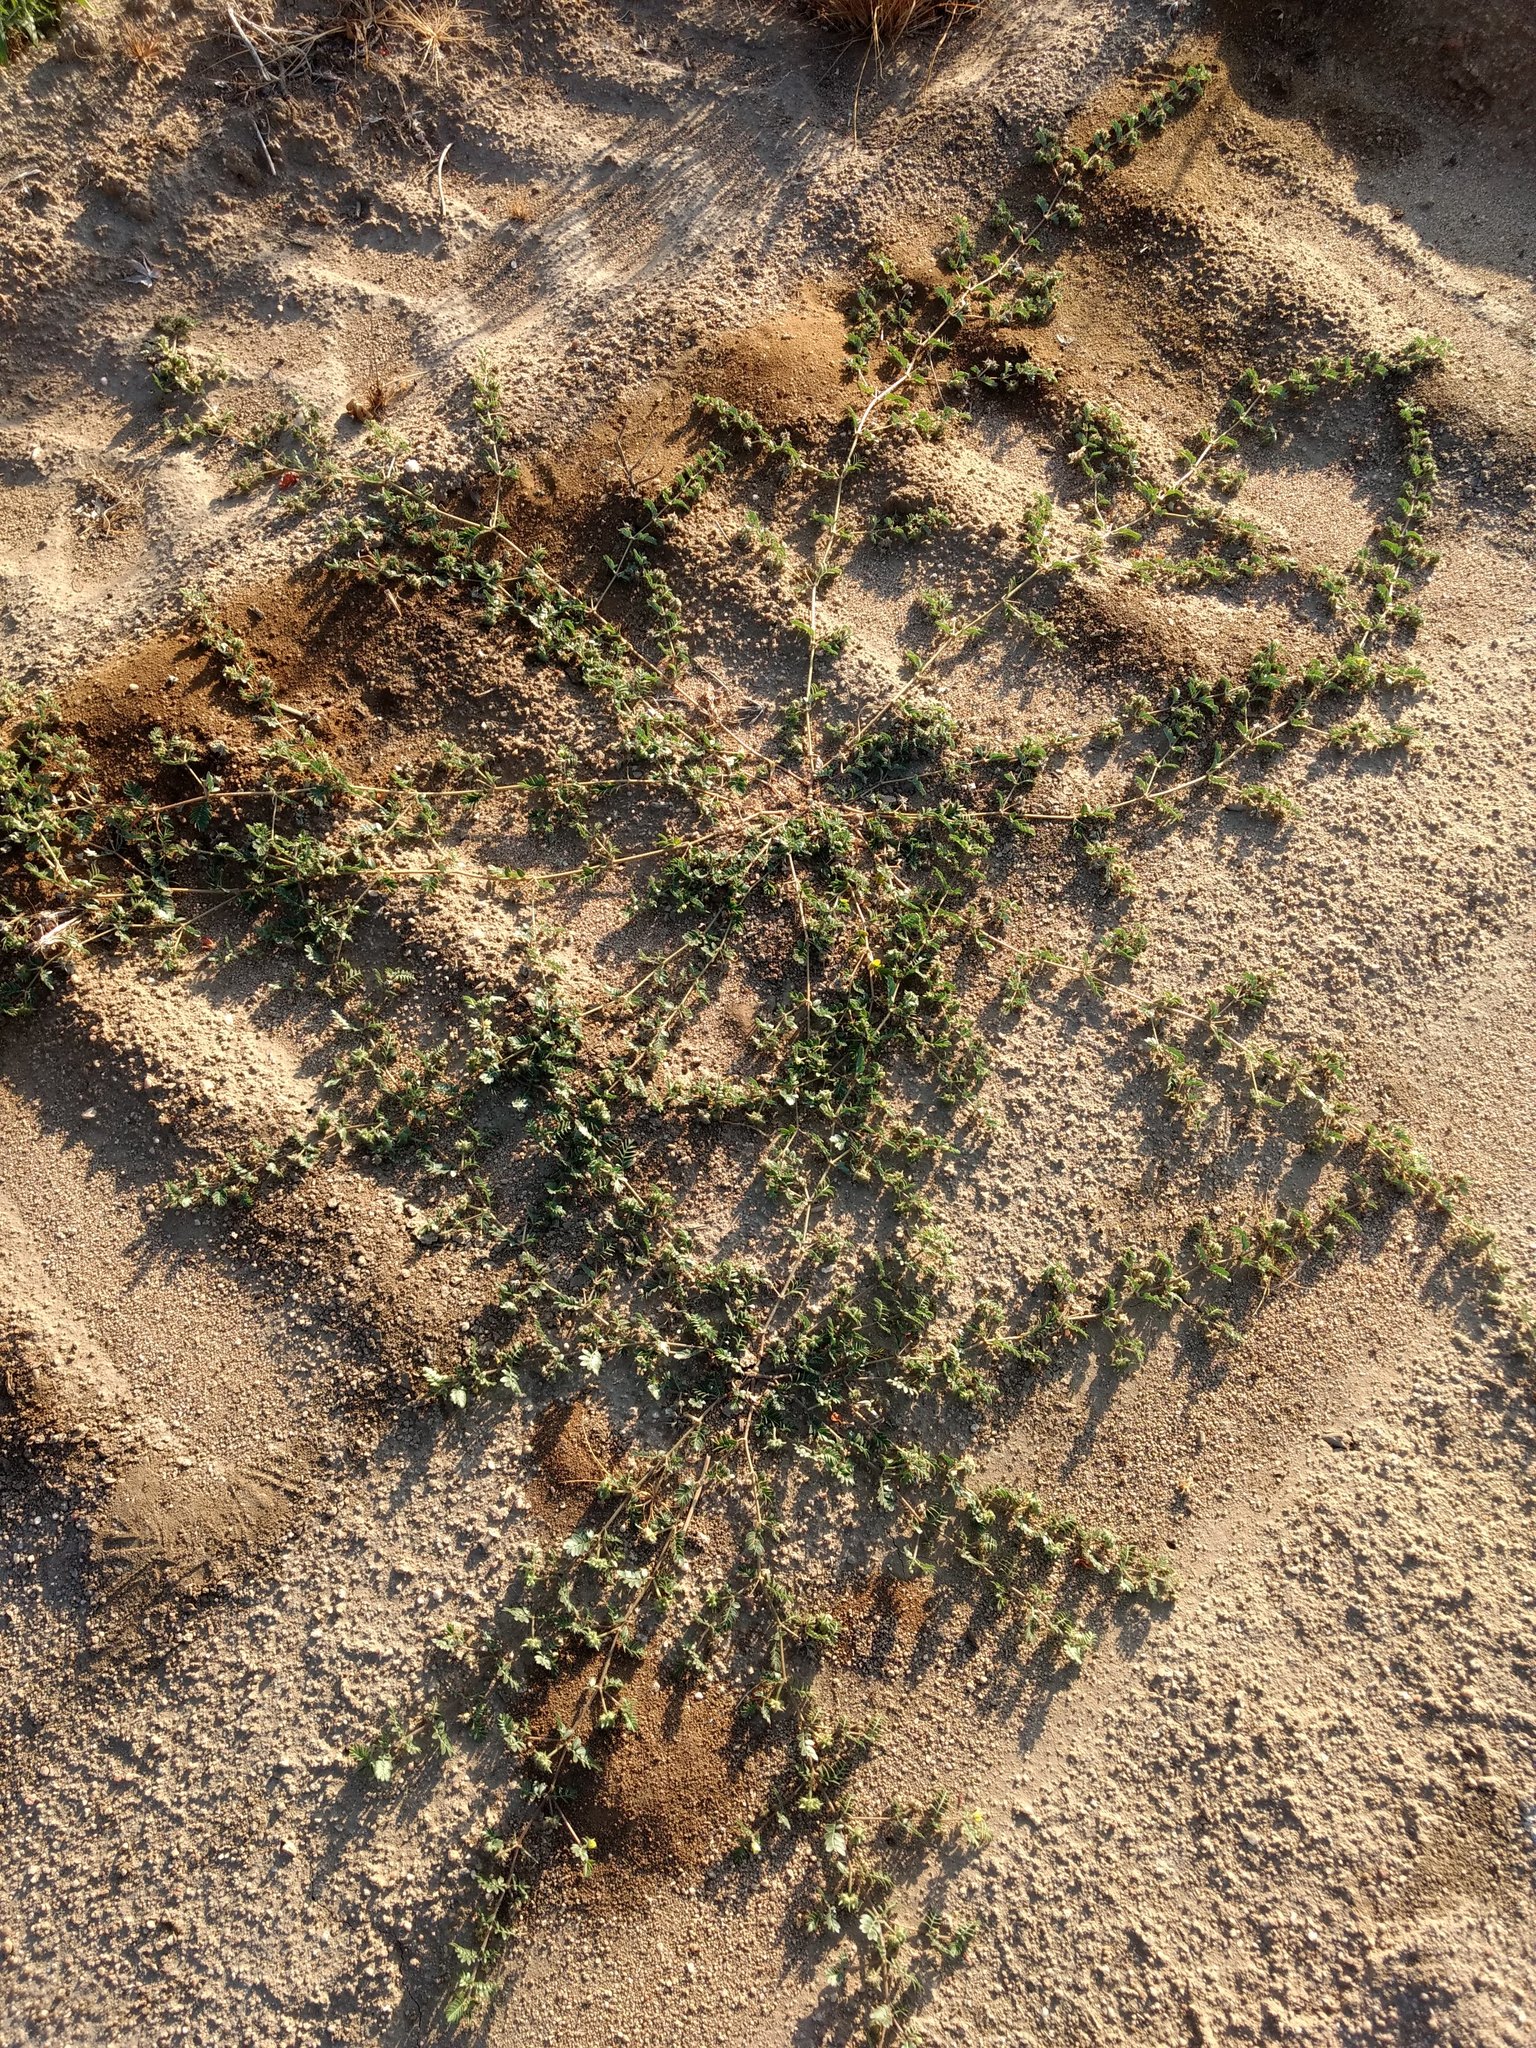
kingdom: Plantae
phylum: Tracheophyta
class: Magnoliopsida
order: Zygophyllales
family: Zygophyllaceae
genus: Tribulus
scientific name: Tribulus terrestris
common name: Puncturevine
